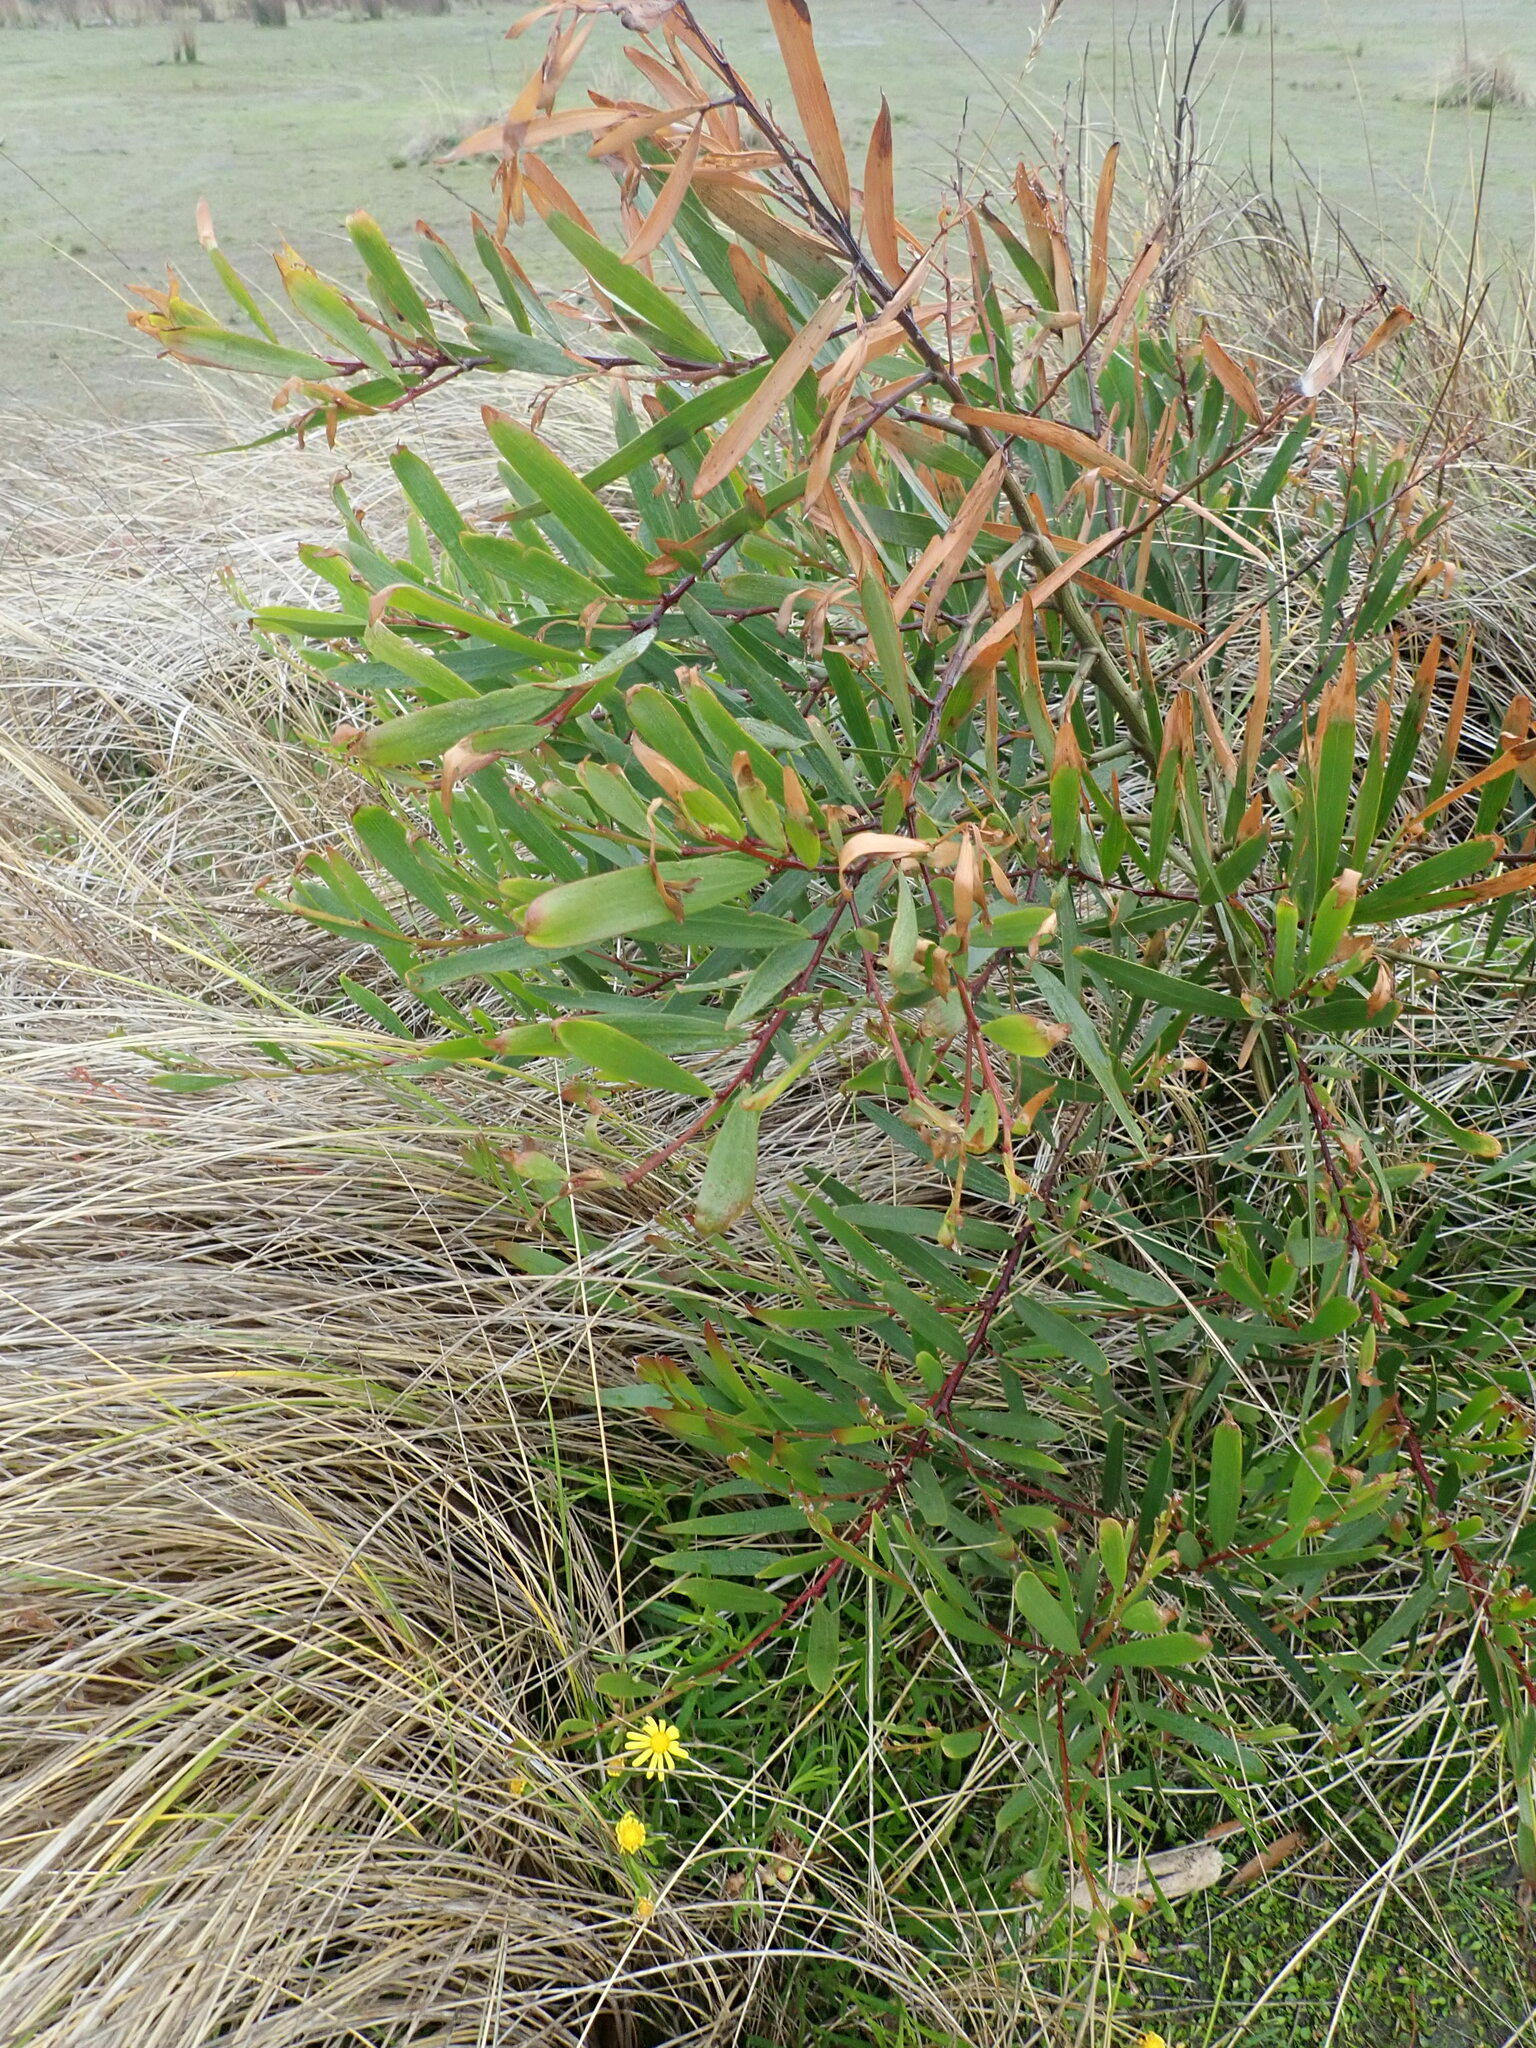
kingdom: Plantae
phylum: Tracheophyta
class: Magnoliopsida
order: Fabales
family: Fabaceae
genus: Acacia
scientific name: Acacia longifolia
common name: Sydney golden wattle
